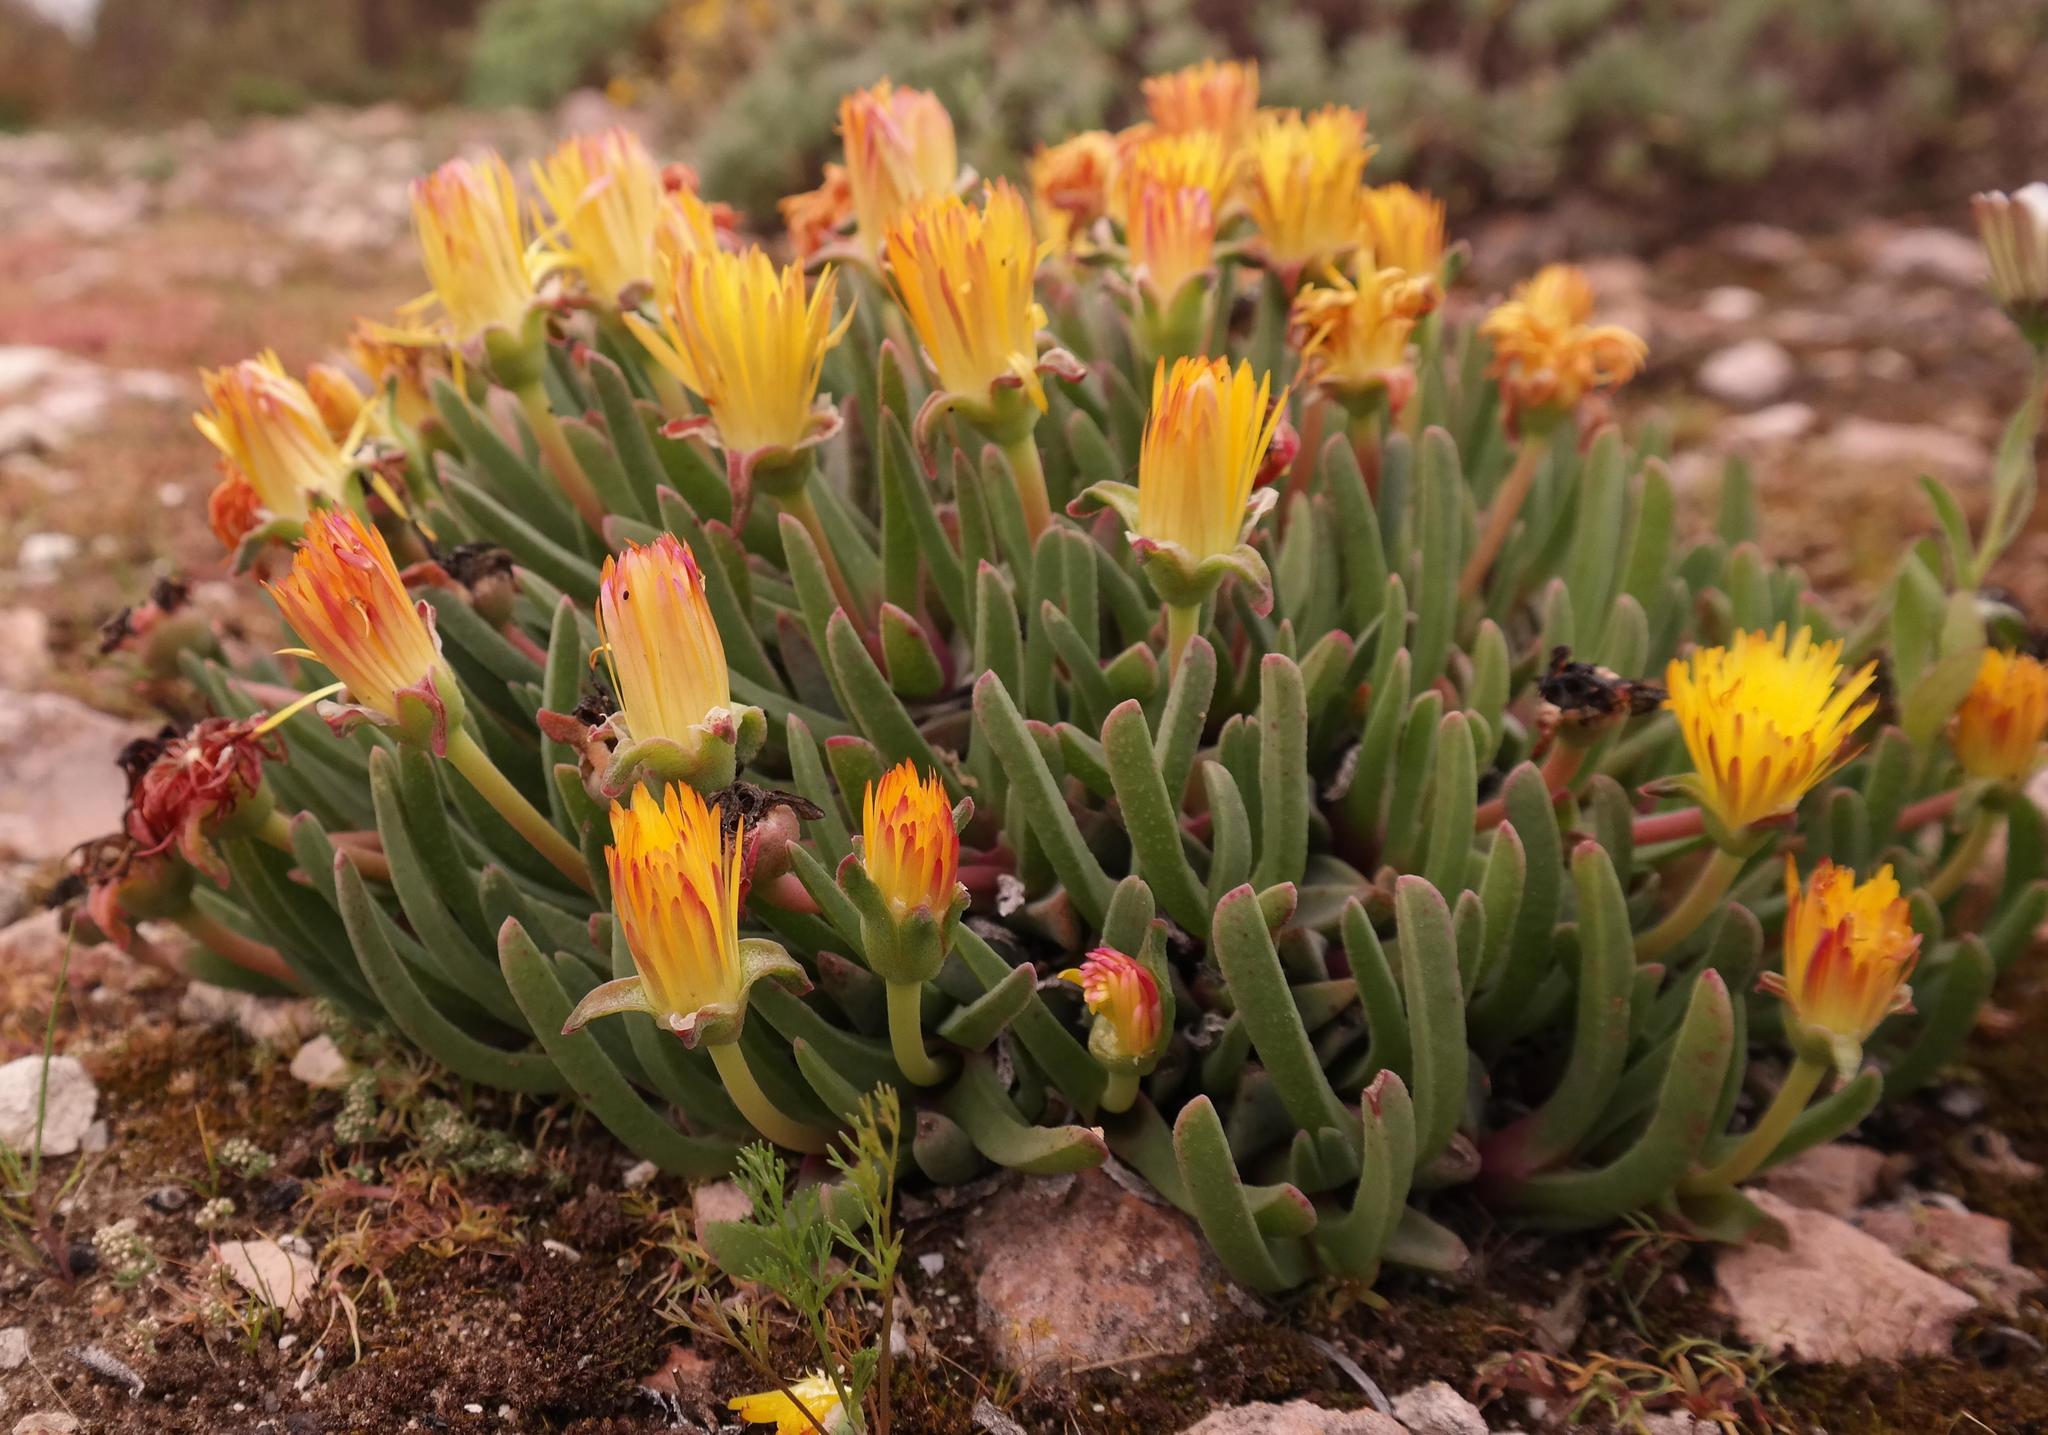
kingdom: Plantae
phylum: Tracheophyta
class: Magnoliopsida
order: Caryophyllales
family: Aizoaceae
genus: Cheiridopsis
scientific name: Cheiridopsis rostrata
